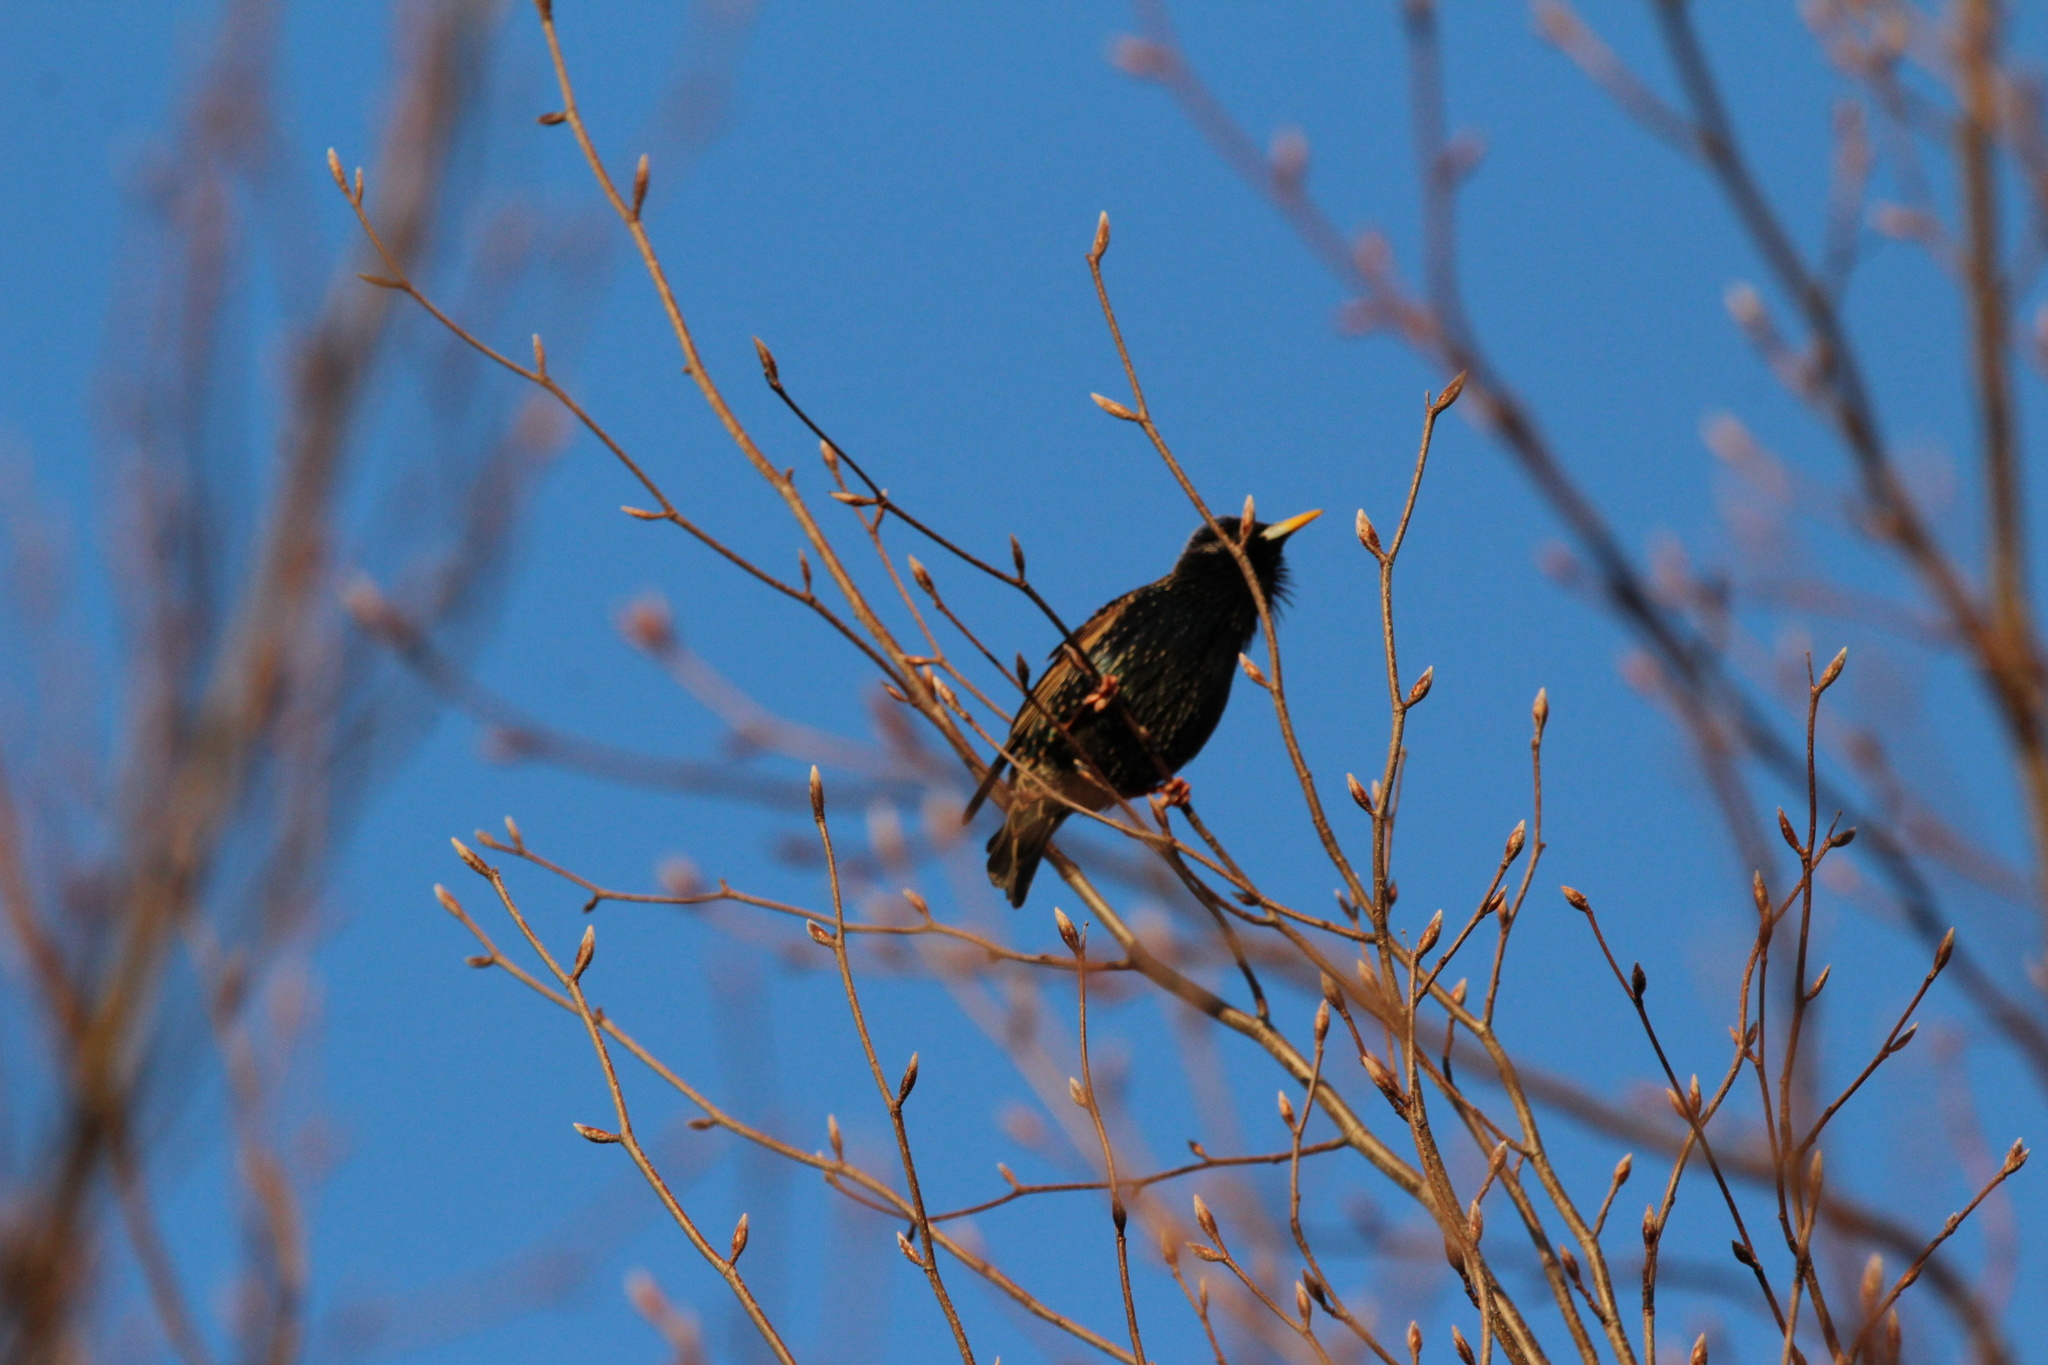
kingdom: Animalia
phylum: Chordata
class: Aves
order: Passeriformes
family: Sturnidae
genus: Sturnus
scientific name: Sturnus vulgaris
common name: Common starling
